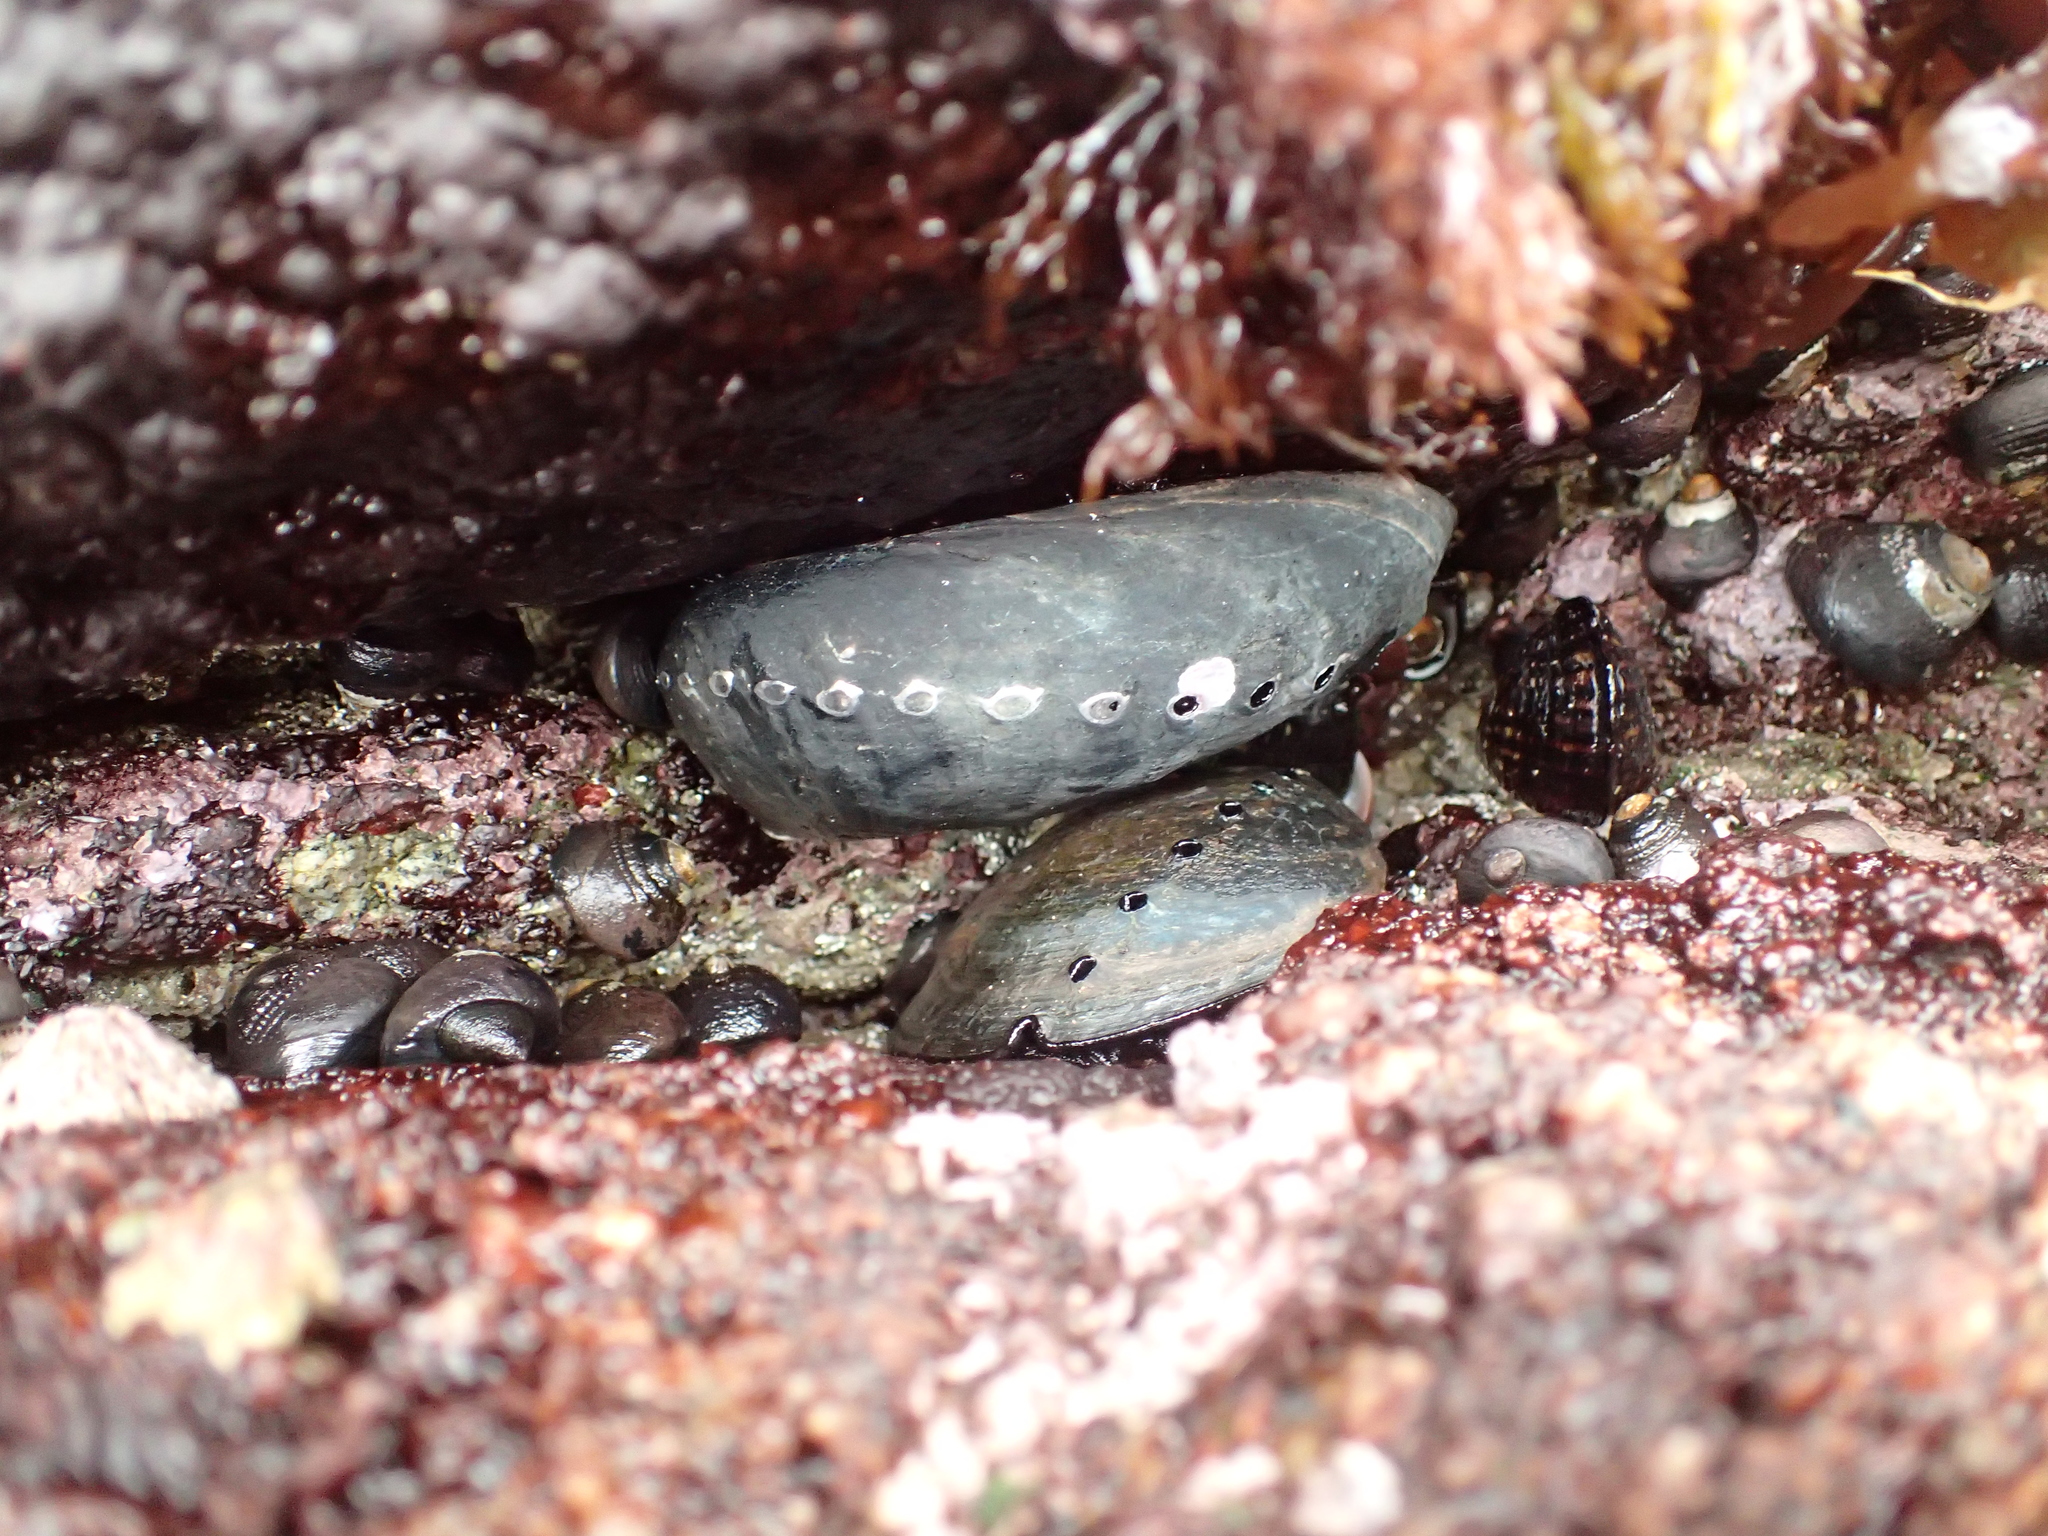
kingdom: Animalia
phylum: Mollusca
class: Gastropoda
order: Lepetellida
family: Haliotidae
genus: Haliotis
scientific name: Haliotis cracherodii
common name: Black abalone
